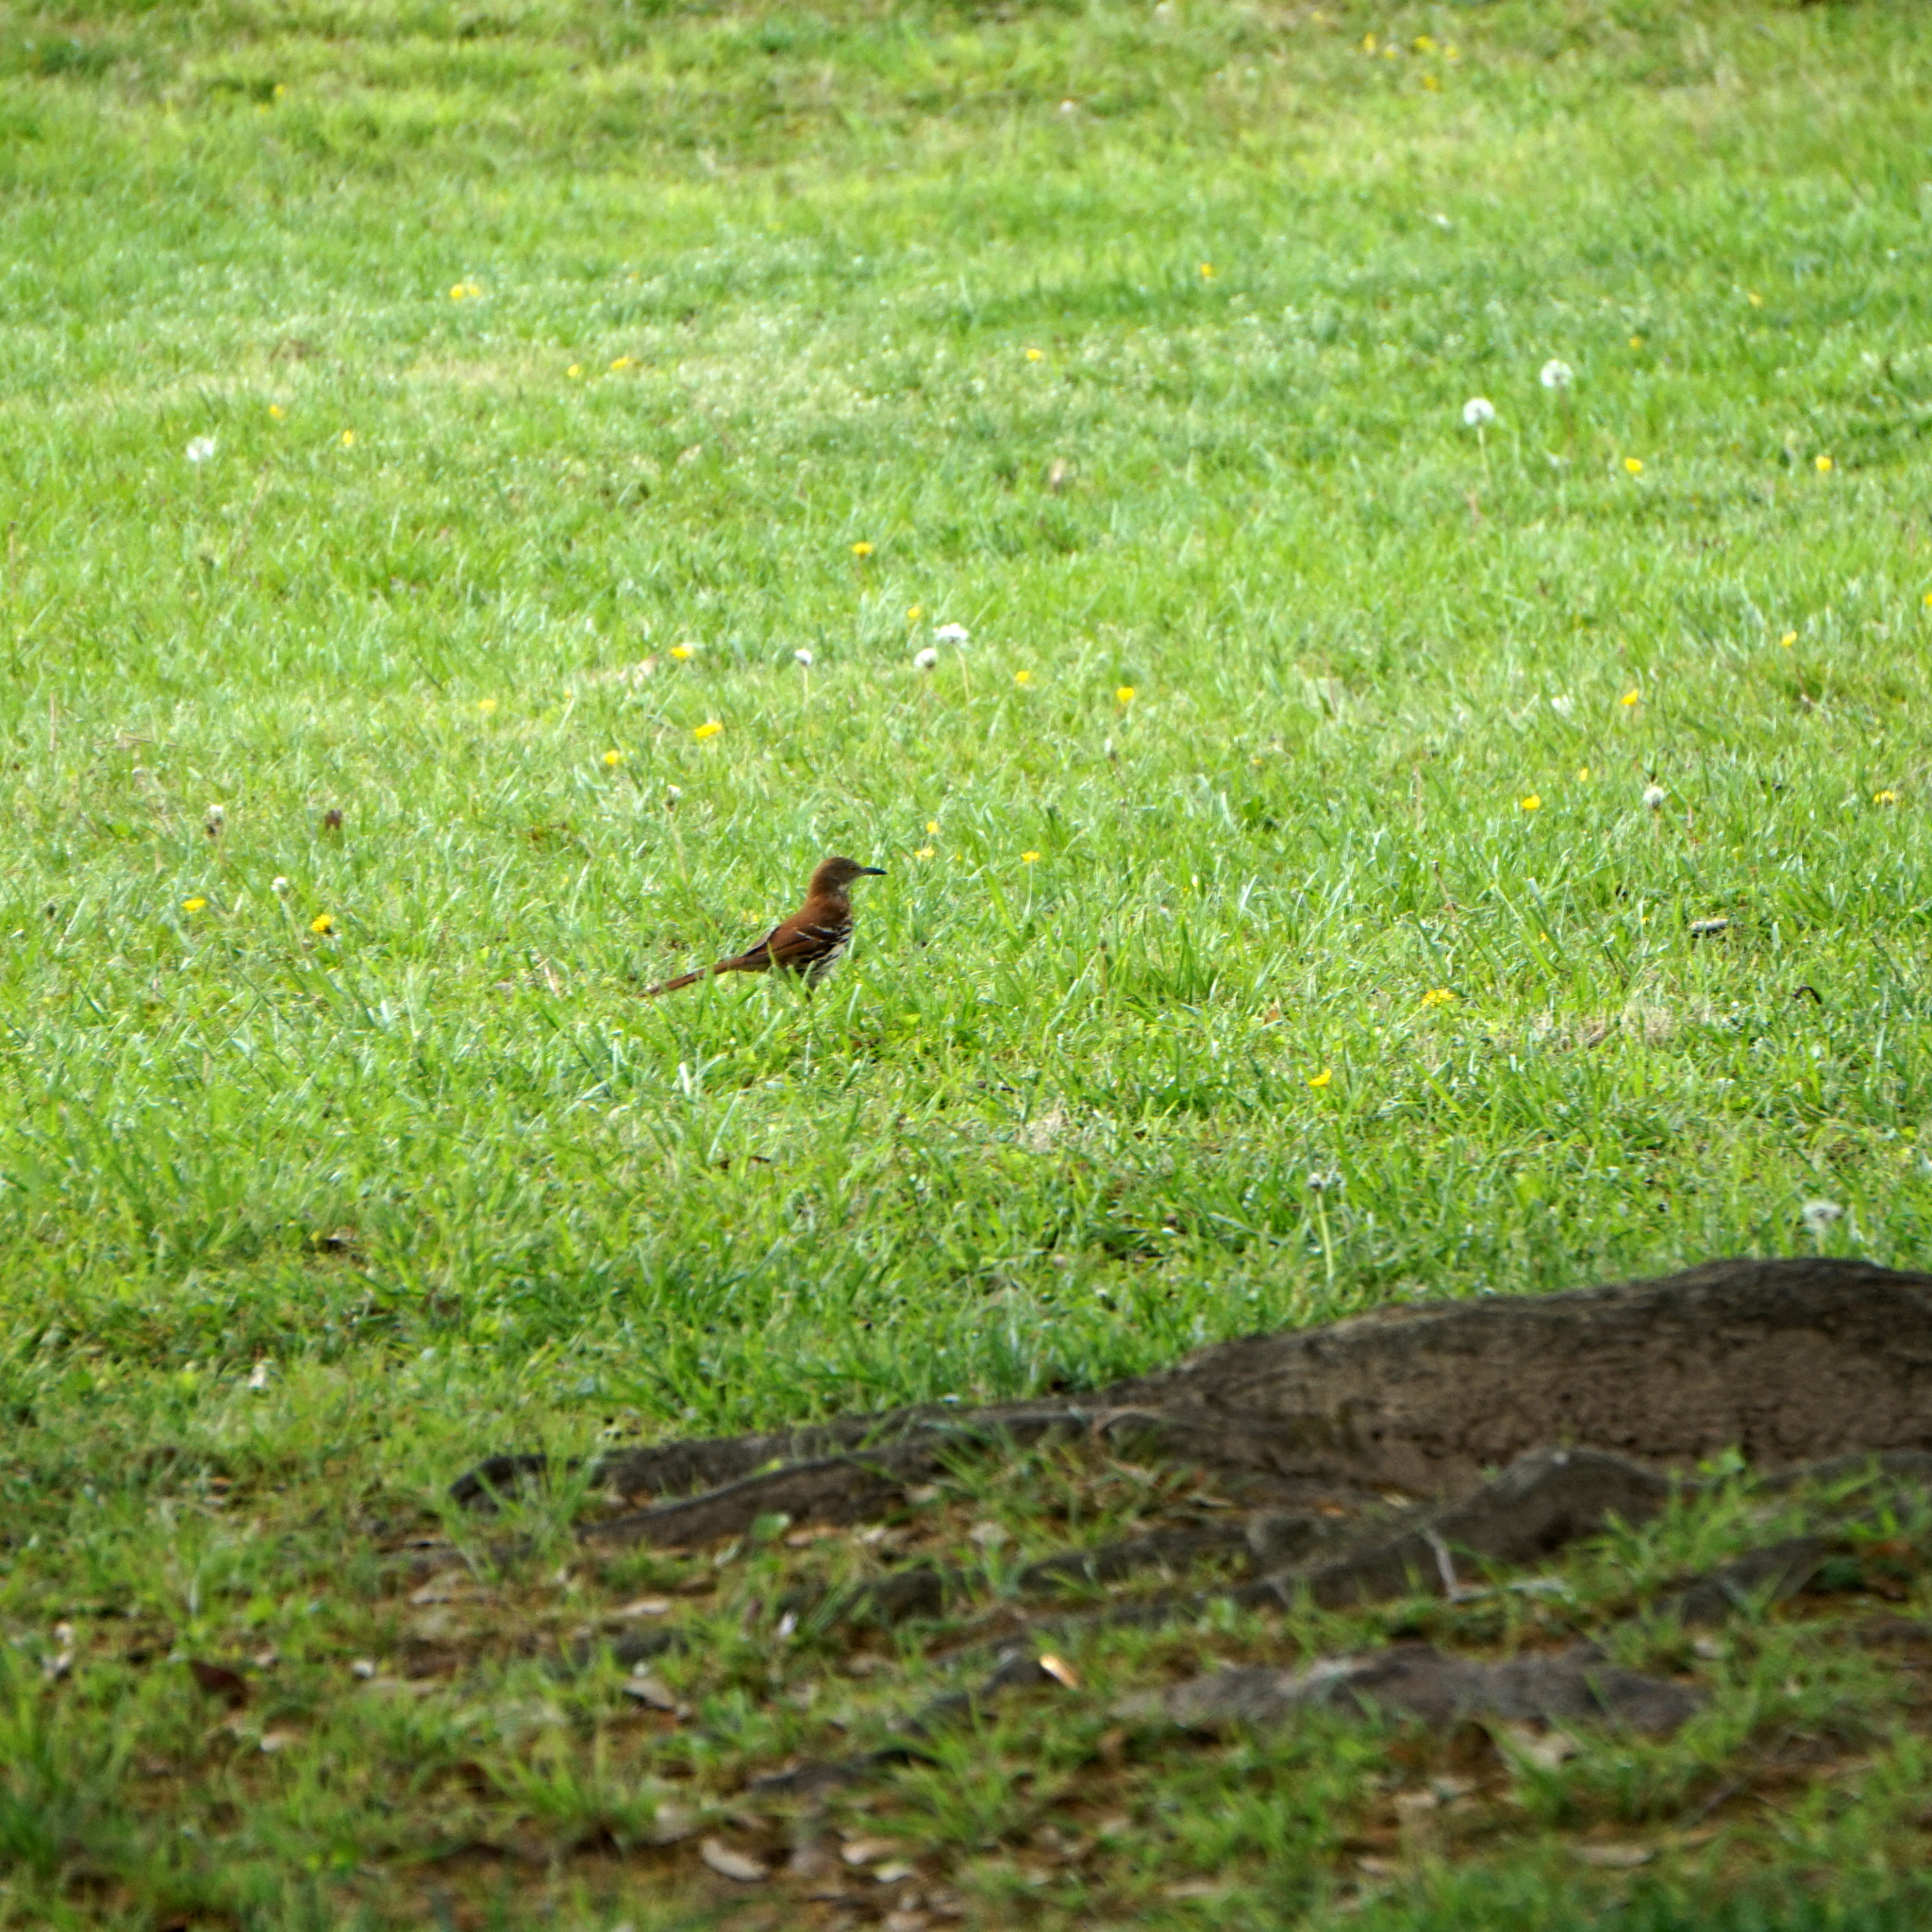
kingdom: Animalia
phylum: Chordata
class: Aves
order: Passeriformes
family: Mimidae
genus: Toxostoma
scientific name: Toxostoma rufum
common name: Brown thrasher
